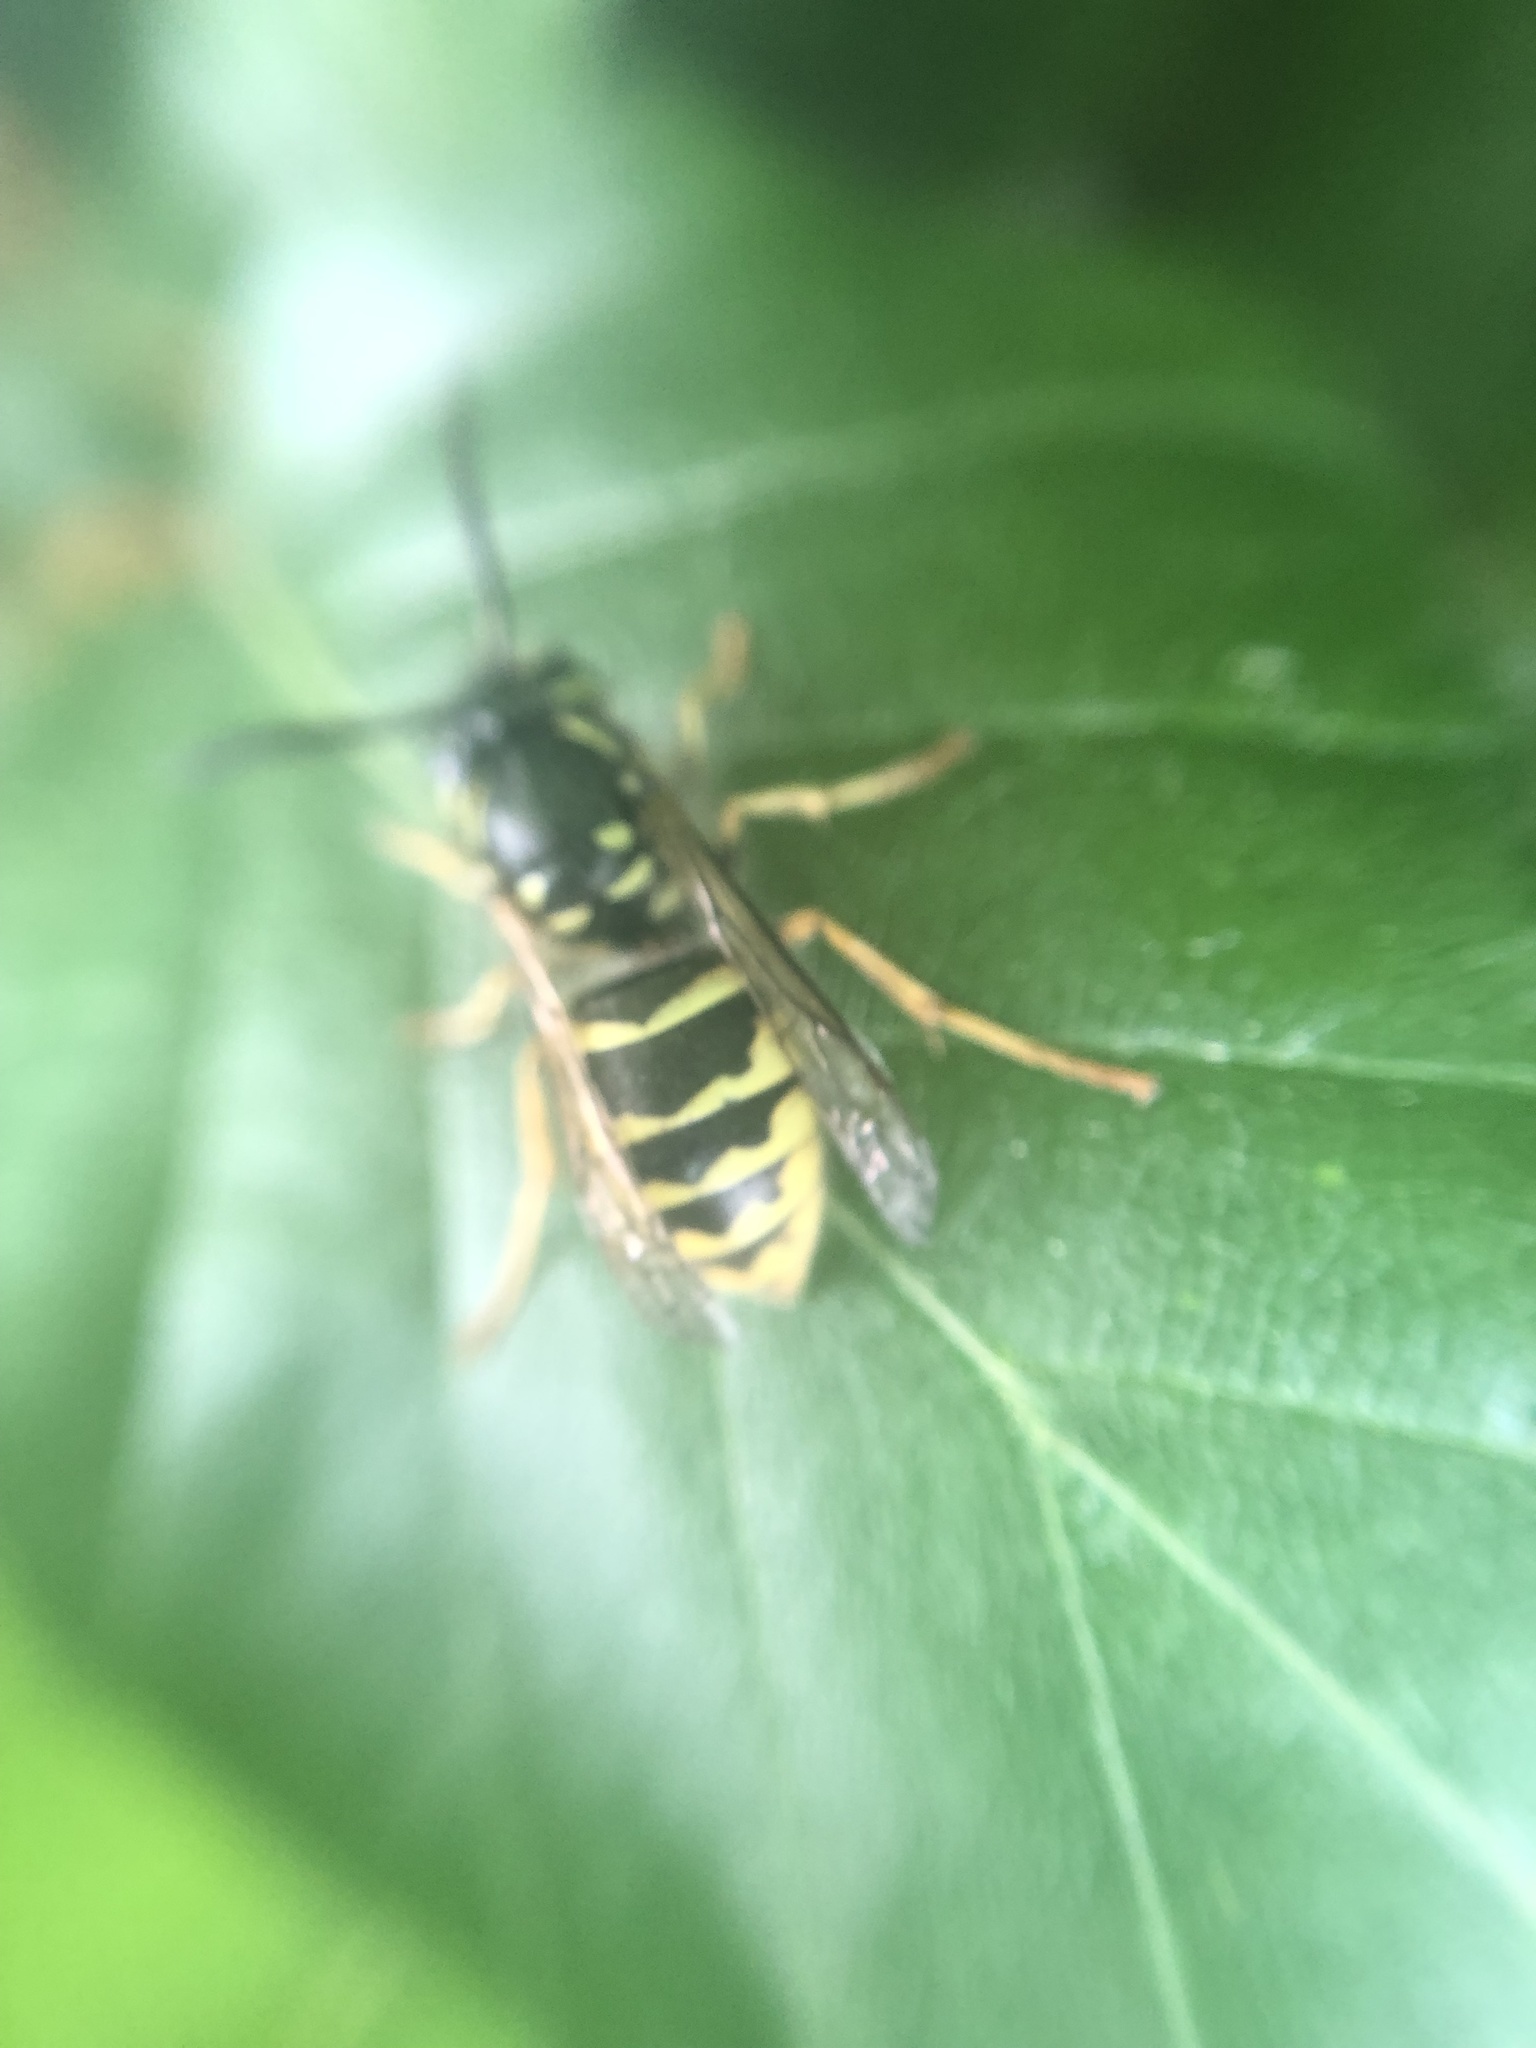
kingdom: Animalia
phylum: Arthropoda
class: Insecta
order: Hymenoptera
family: Vespidae
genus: Vespula
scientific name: Vespula vulgaris
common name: Common wasp
